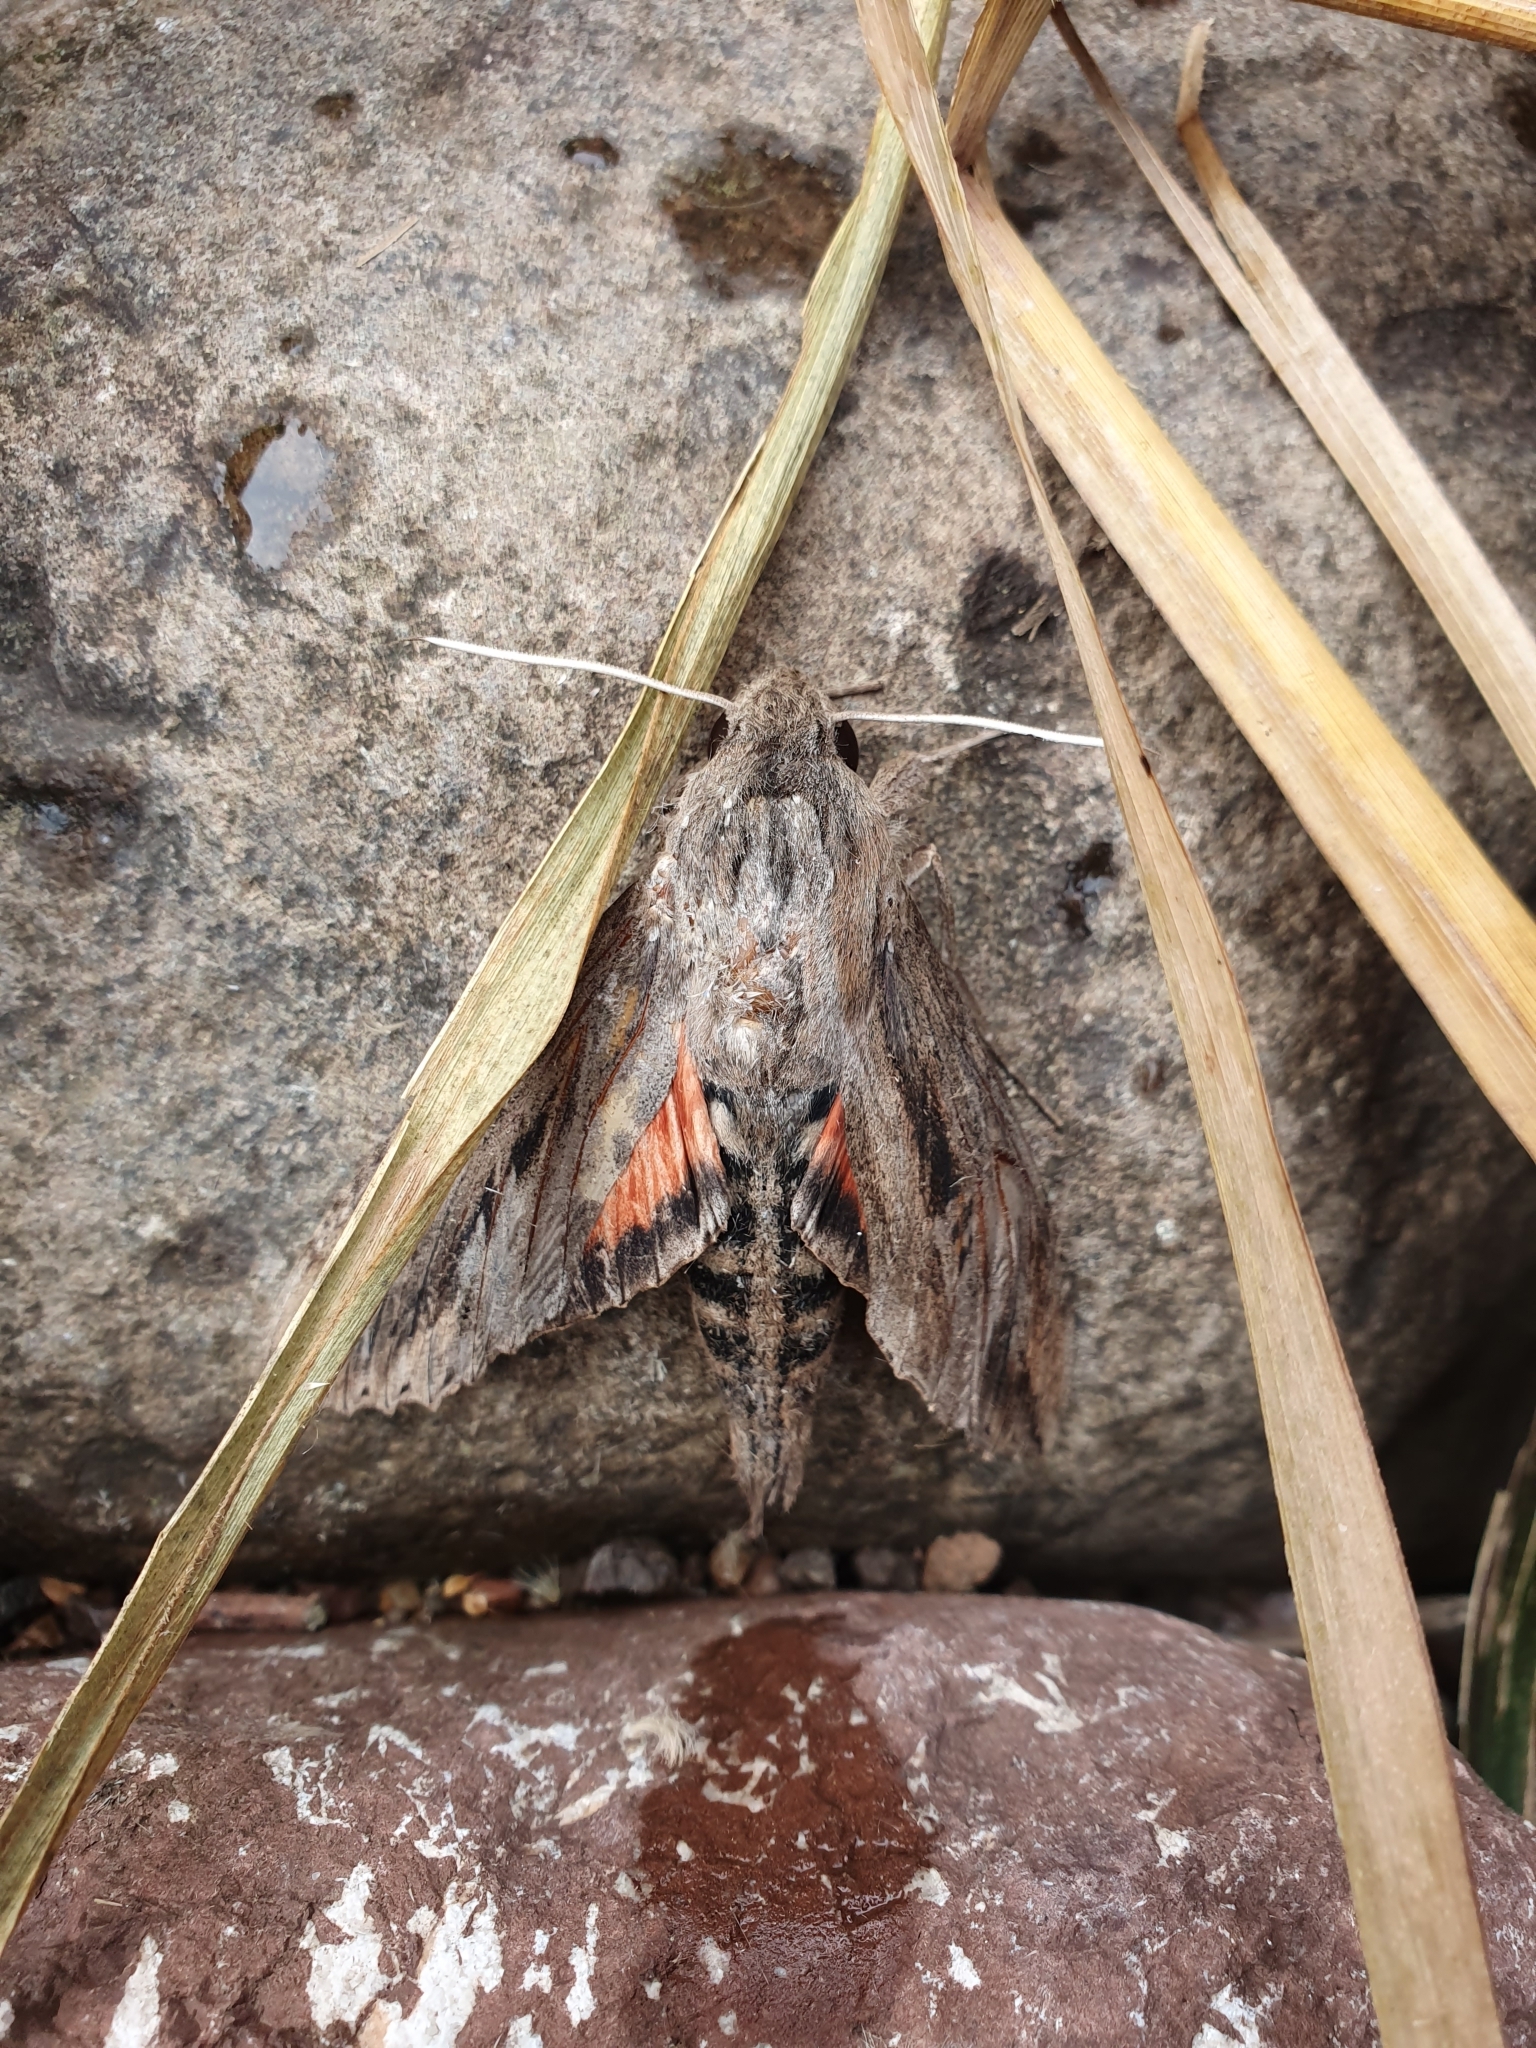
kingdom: Animalia
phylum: Arthropoda
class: Insecta
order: Lepidoptera
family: Sphingidae
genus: Erinnyis
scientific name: Erinnyis ello
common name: Ello sphinx
